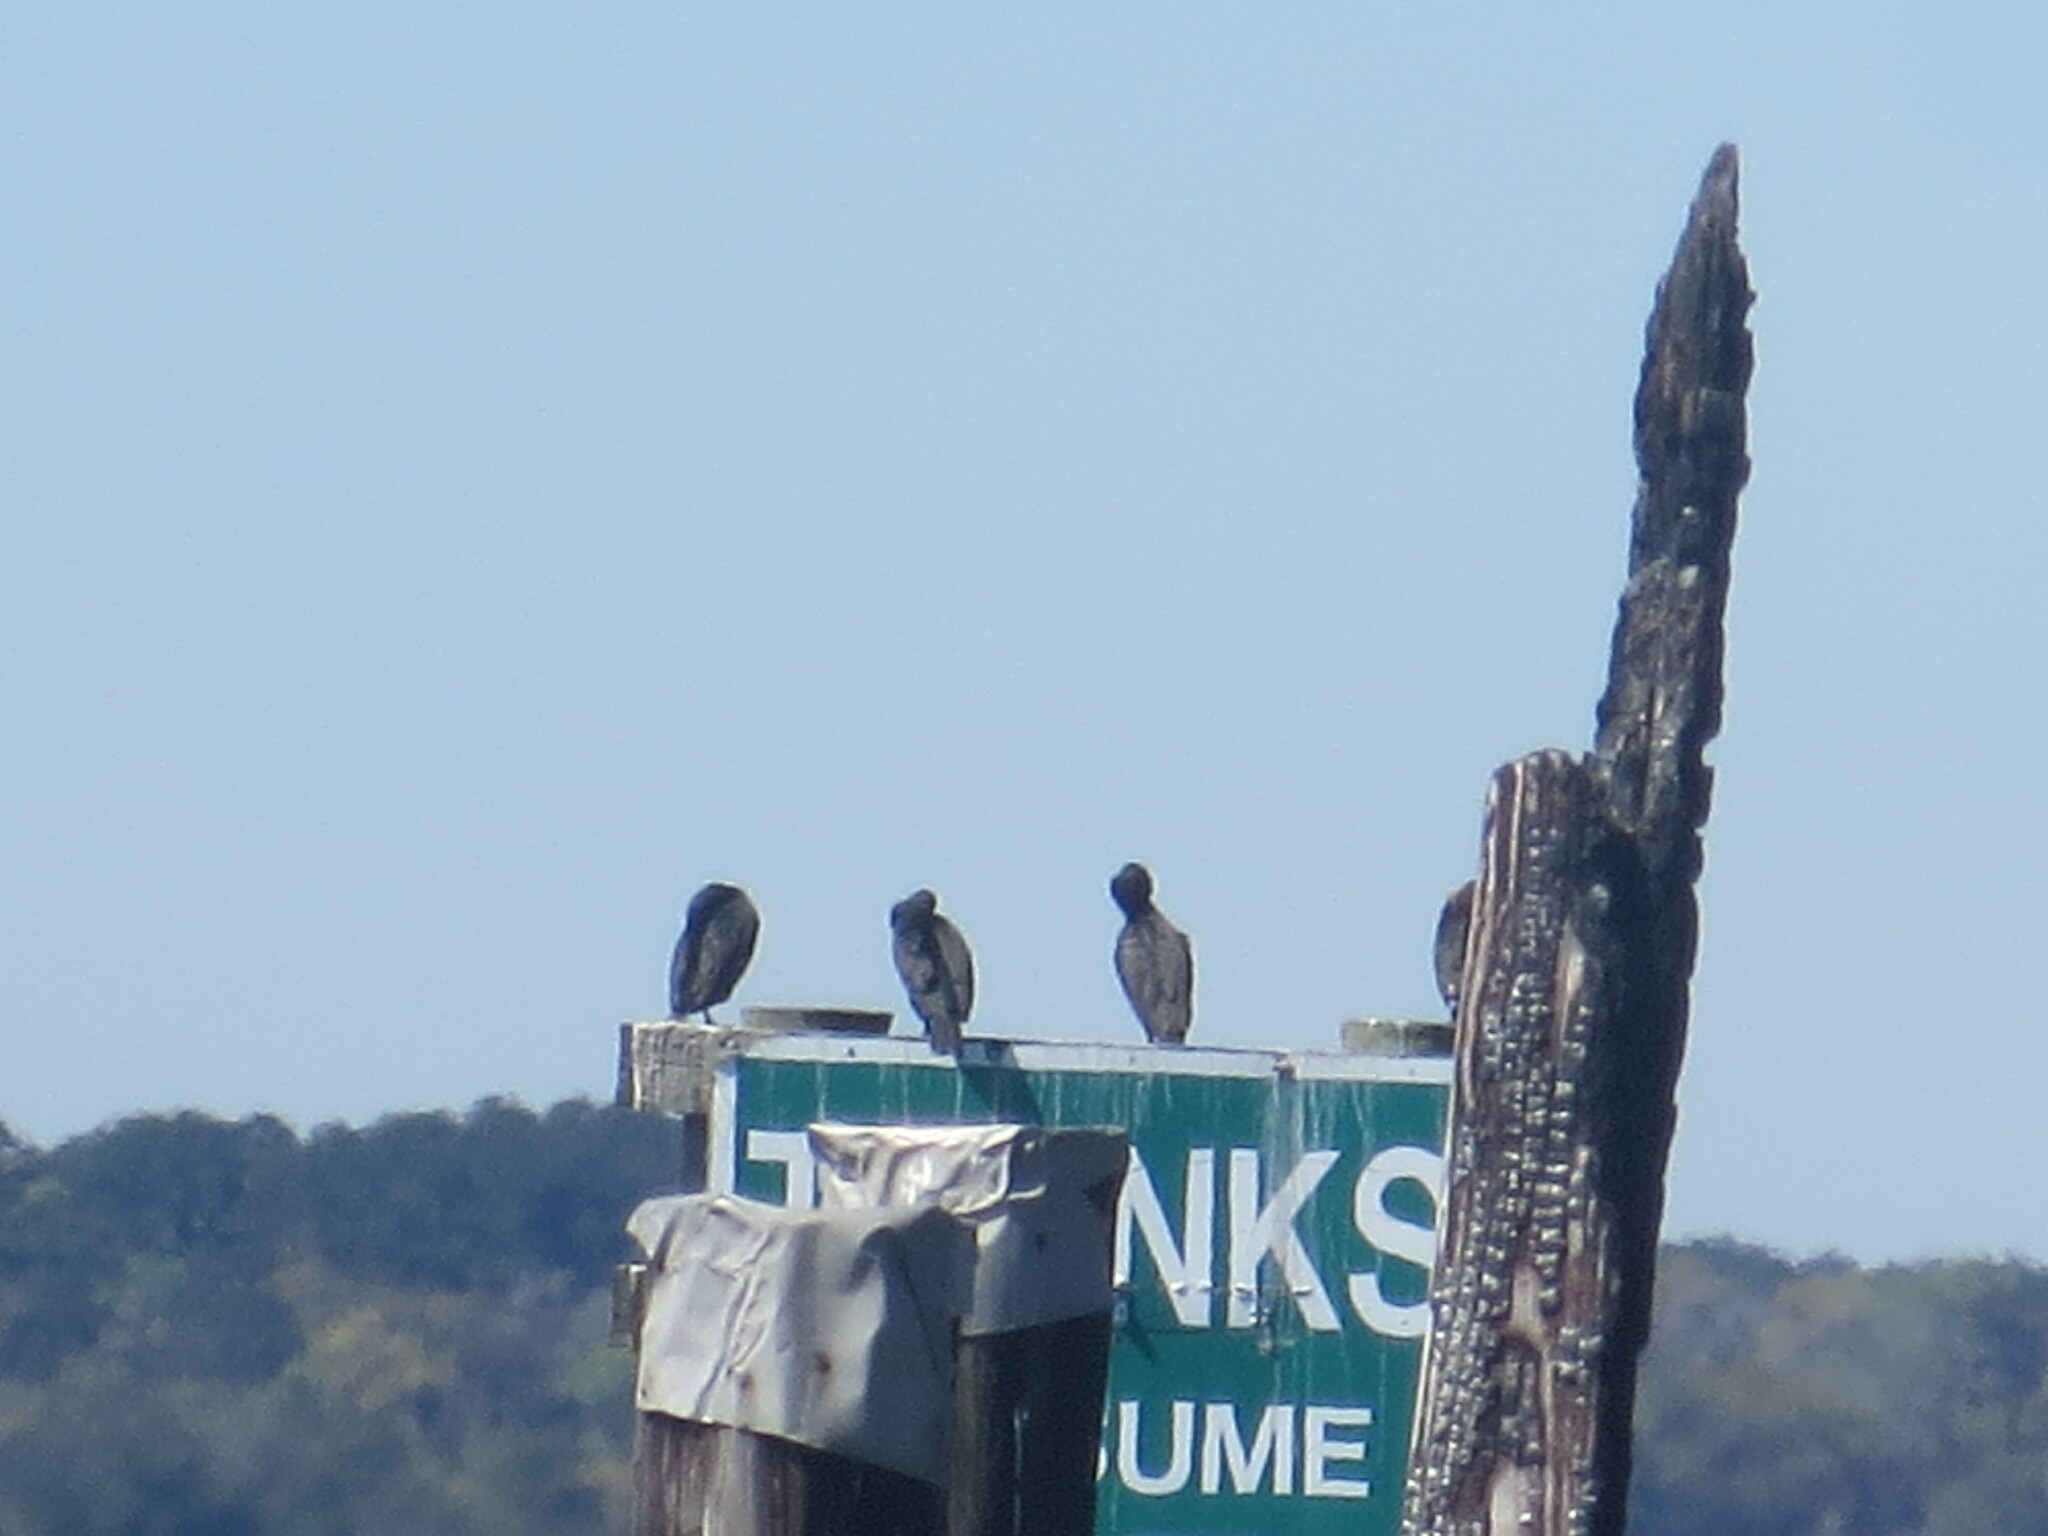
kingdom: Animalia
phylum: Chordata
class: Aves
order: Suliformes
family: Phalacrocoracidae
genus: Phalacrocorax
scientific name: Phalacrocorax auritus
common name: Double-crested cormorant
